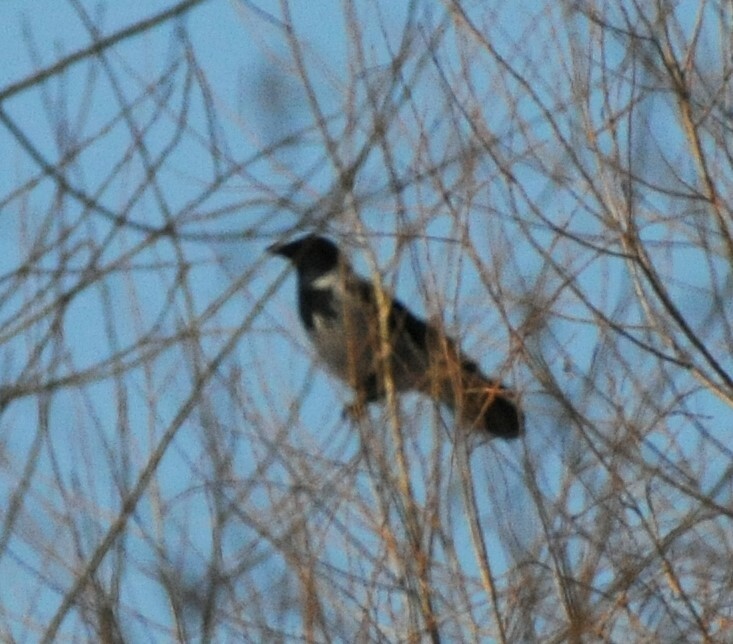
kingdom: Animalia
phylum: Chordata
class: Aves
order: Passeriformes
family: Corvidae
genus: Corvus
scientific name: Corvus cornix
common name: Hooded crow
